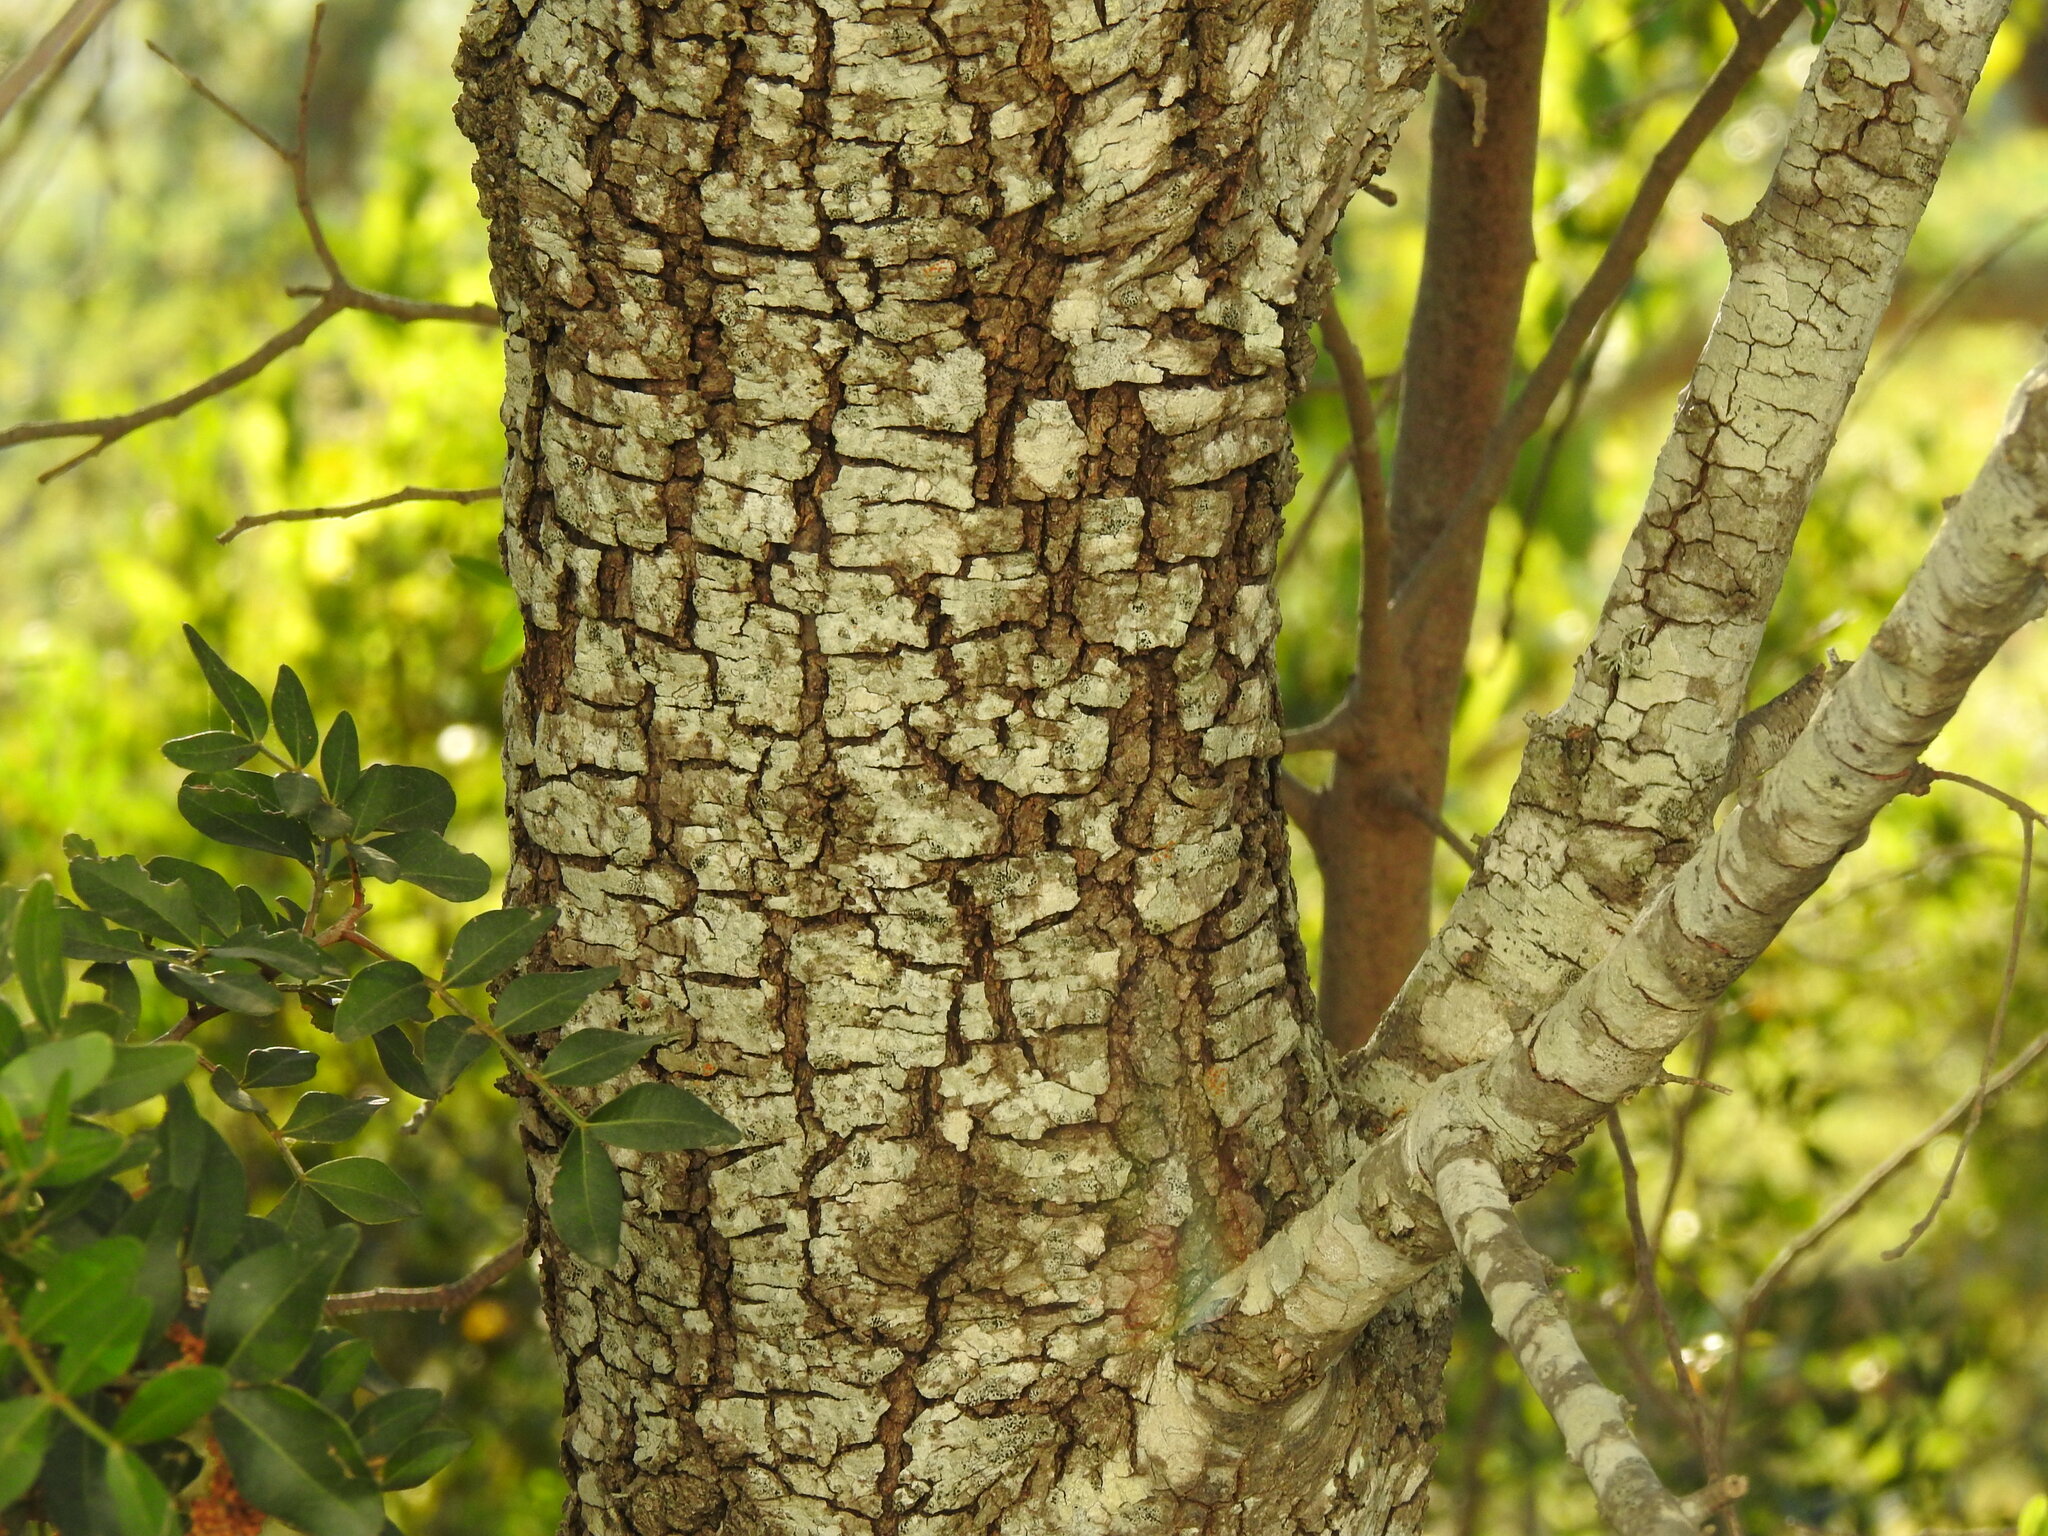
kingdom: Plantae
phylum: Tracheophyta
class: Magnoliopsida
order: Fagales
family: Fagaceae
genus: Quercus
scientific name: Quercus rotundifolia
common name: Holm oak
